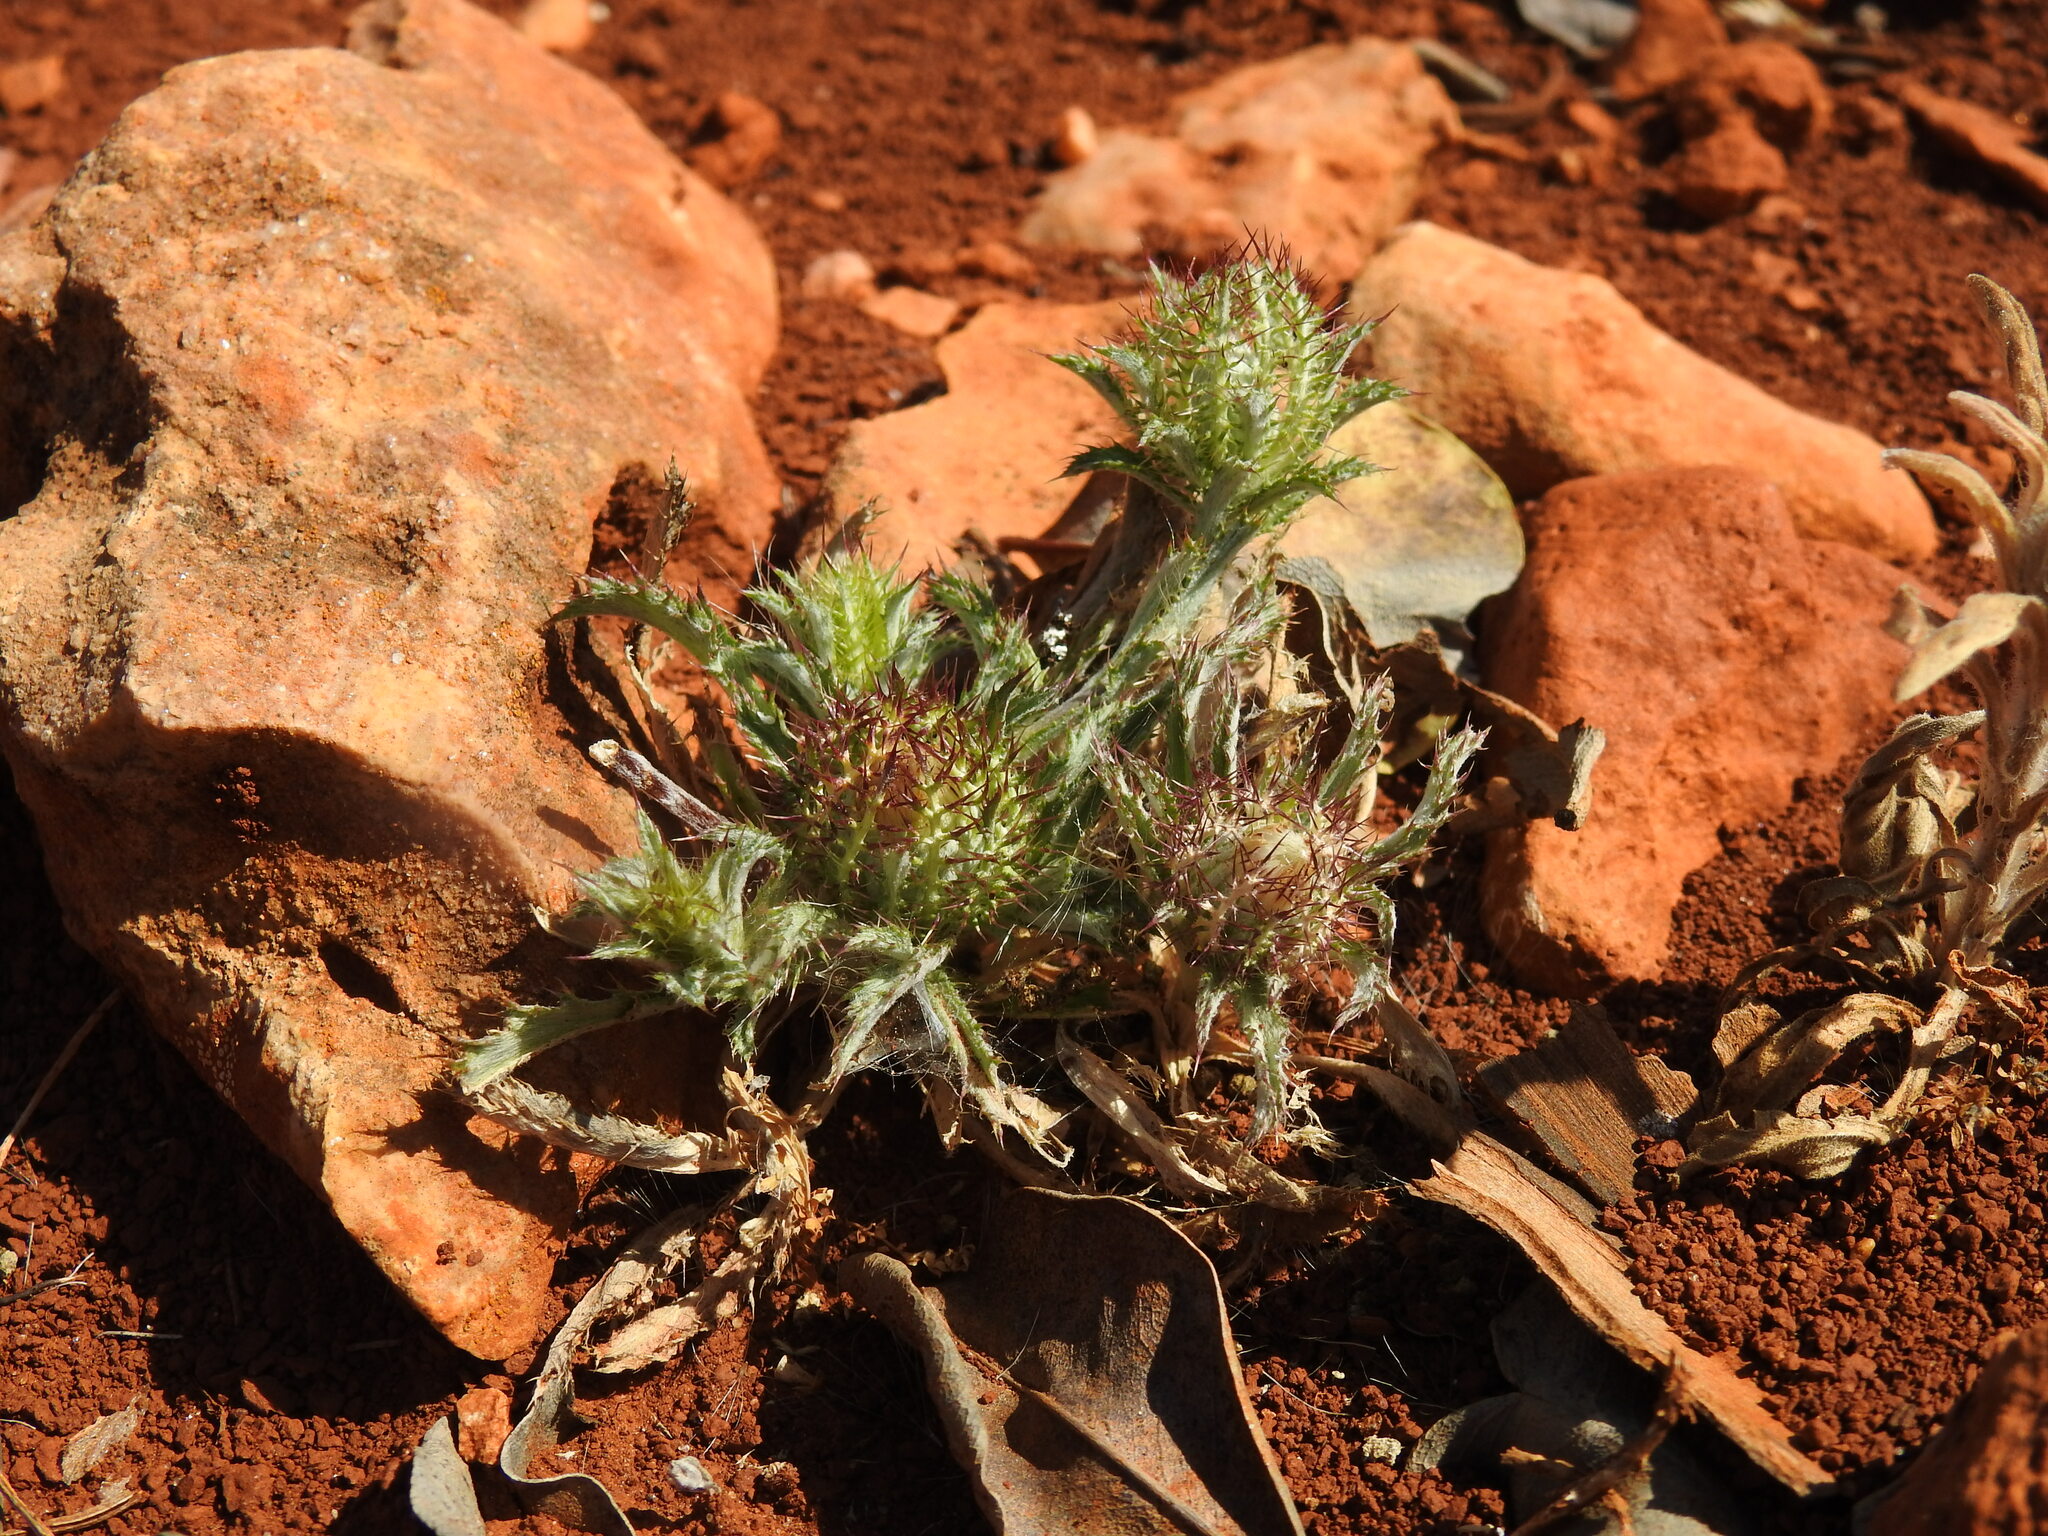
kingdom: Plantae
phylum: Tracheophyta
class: Magnoliopsida
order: Asterales
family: Asteraceae
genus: Atractylis
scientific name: Atractylis cancellata
